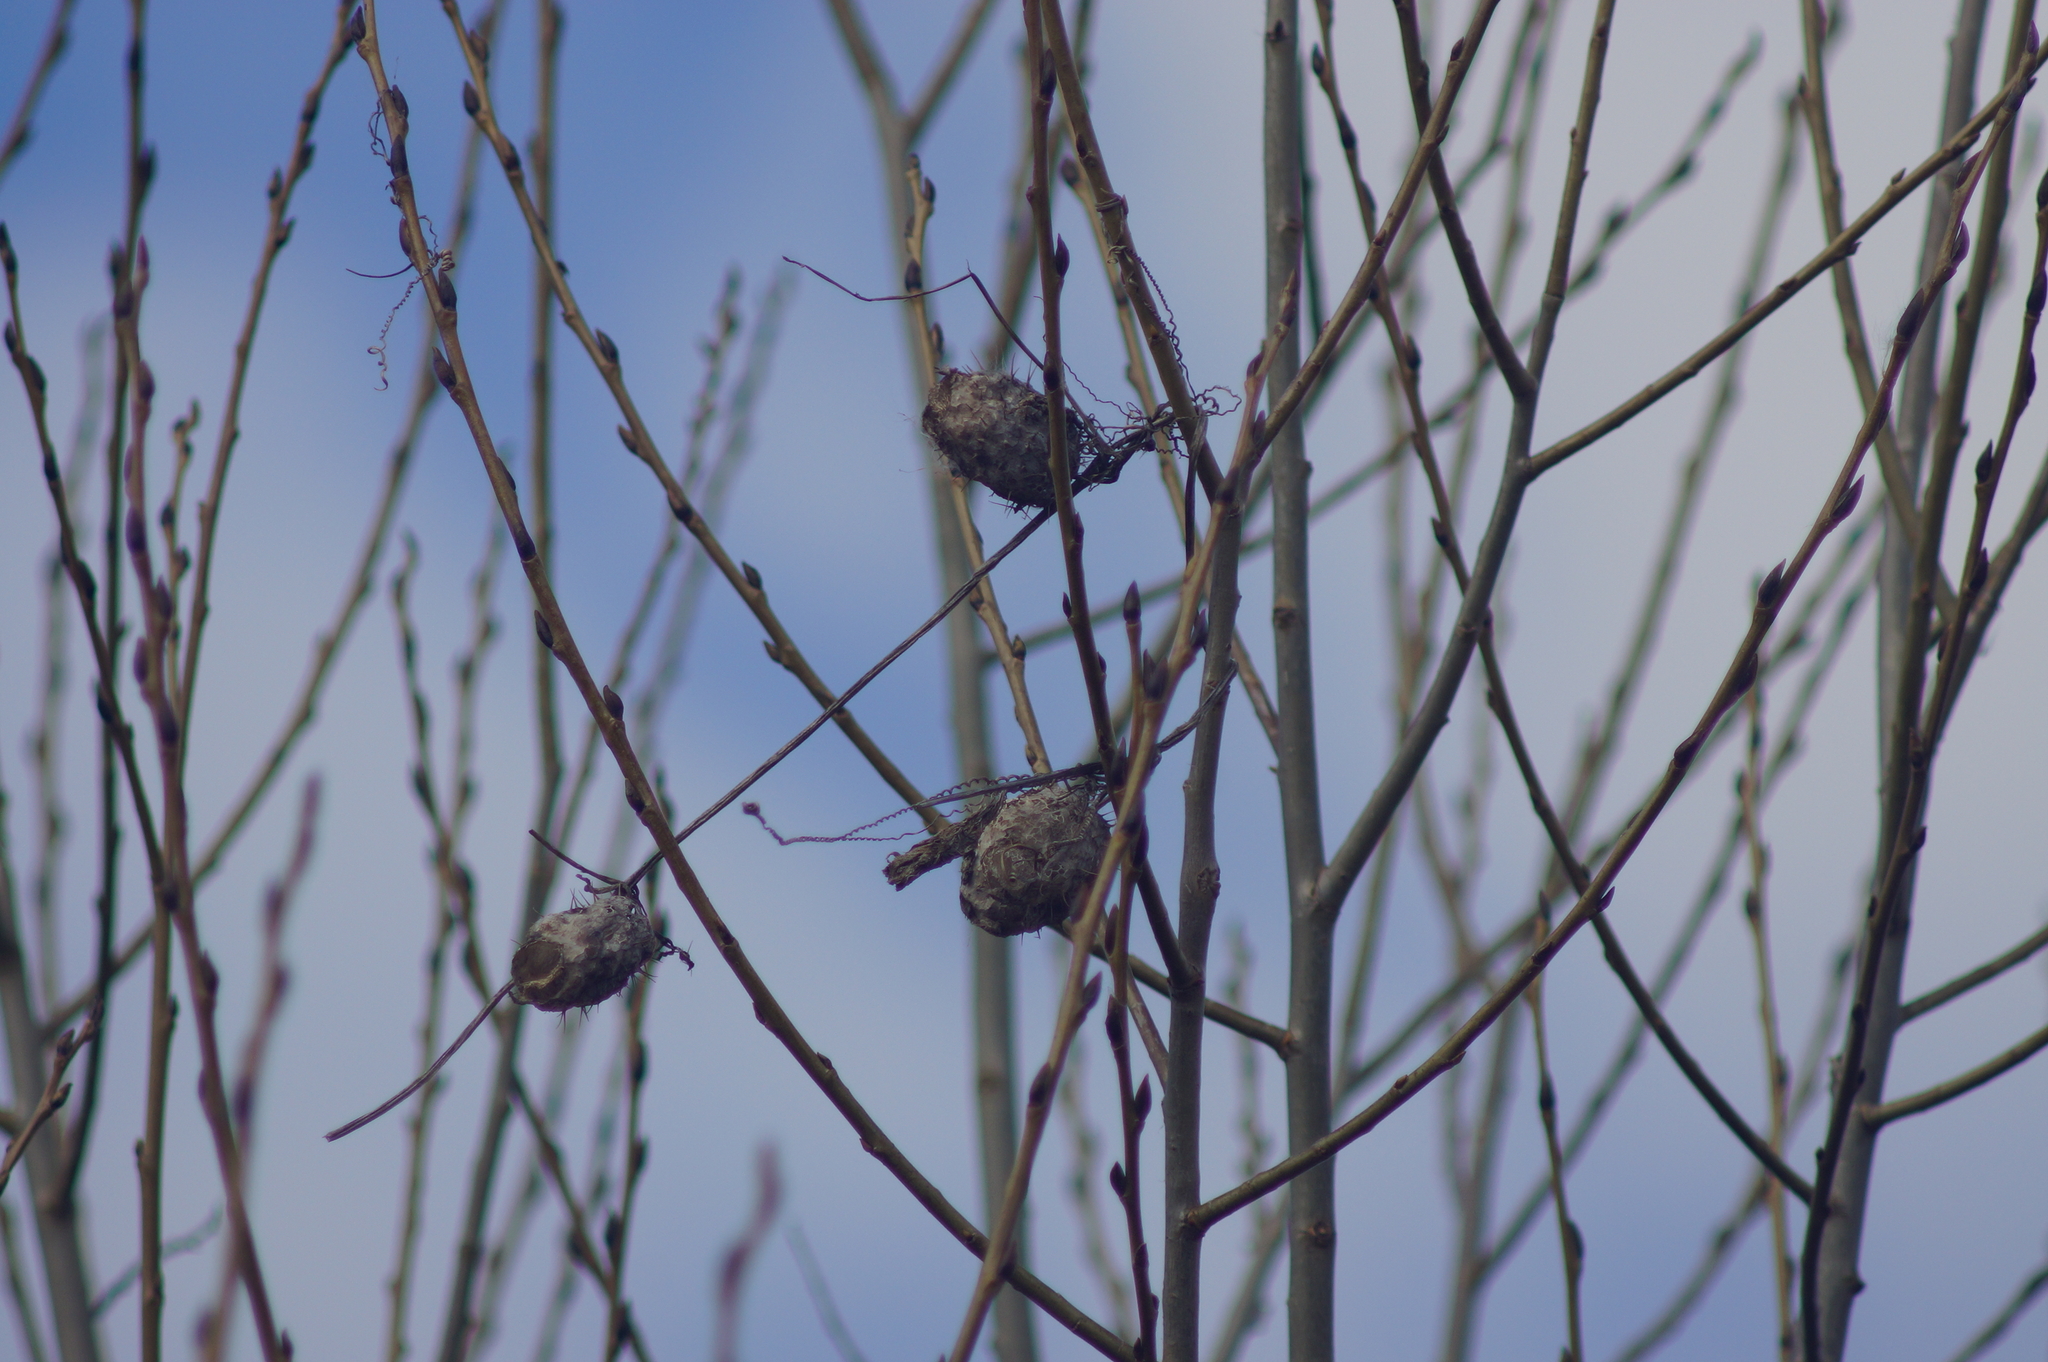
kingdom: Plantae
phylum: Tracheophyta
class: Magnoliopsida
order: Cucurbitales
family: Cucurbitaceae
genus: Echinocystis
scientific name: Echinocystis lobata
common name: Wild cucumber
